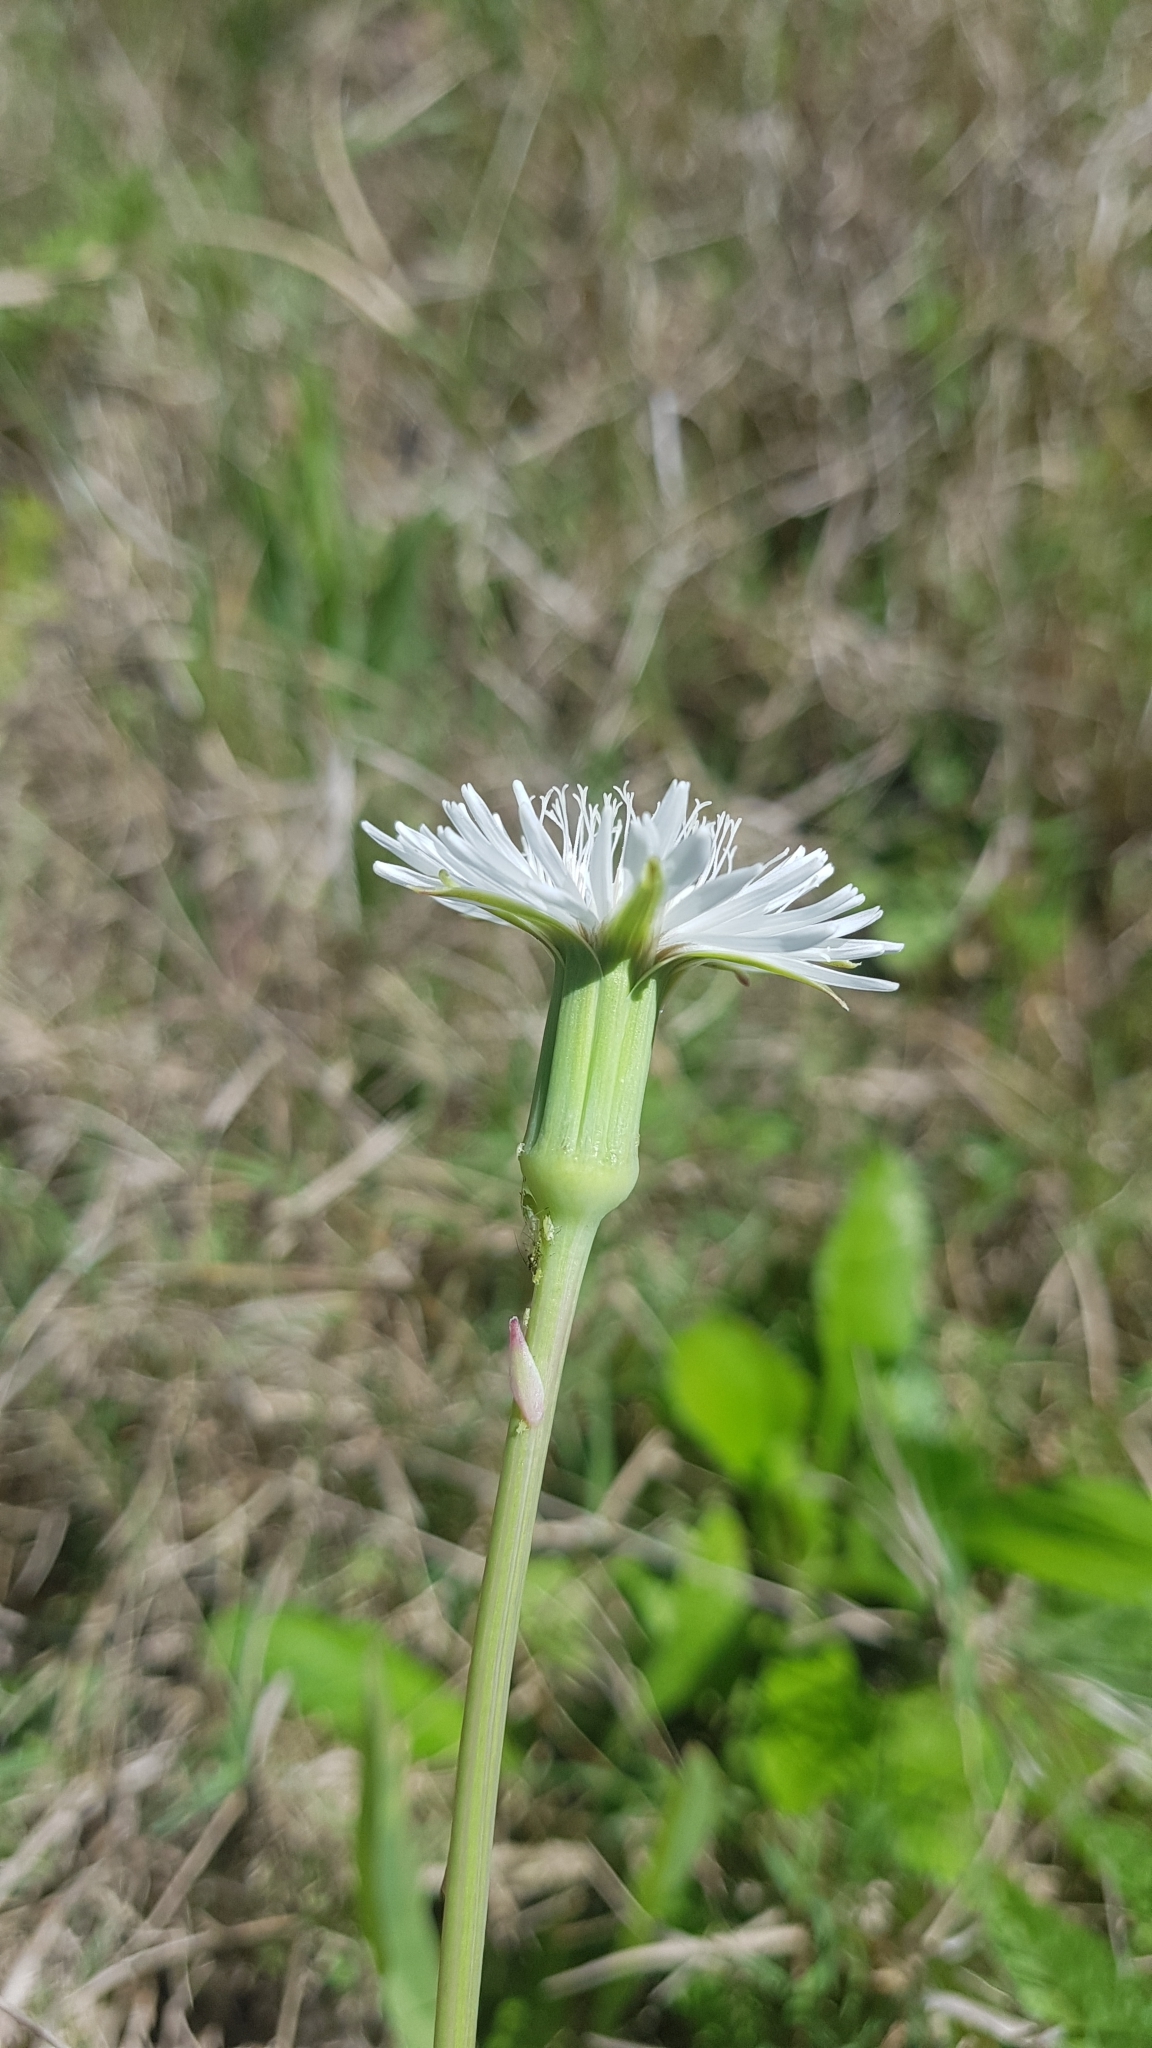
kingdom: Plantae
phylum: Tracheophyta
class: Magnoliopsida
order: Asterales
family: Asteraceae
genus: Picrosia
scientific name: Picrosia longifolia
